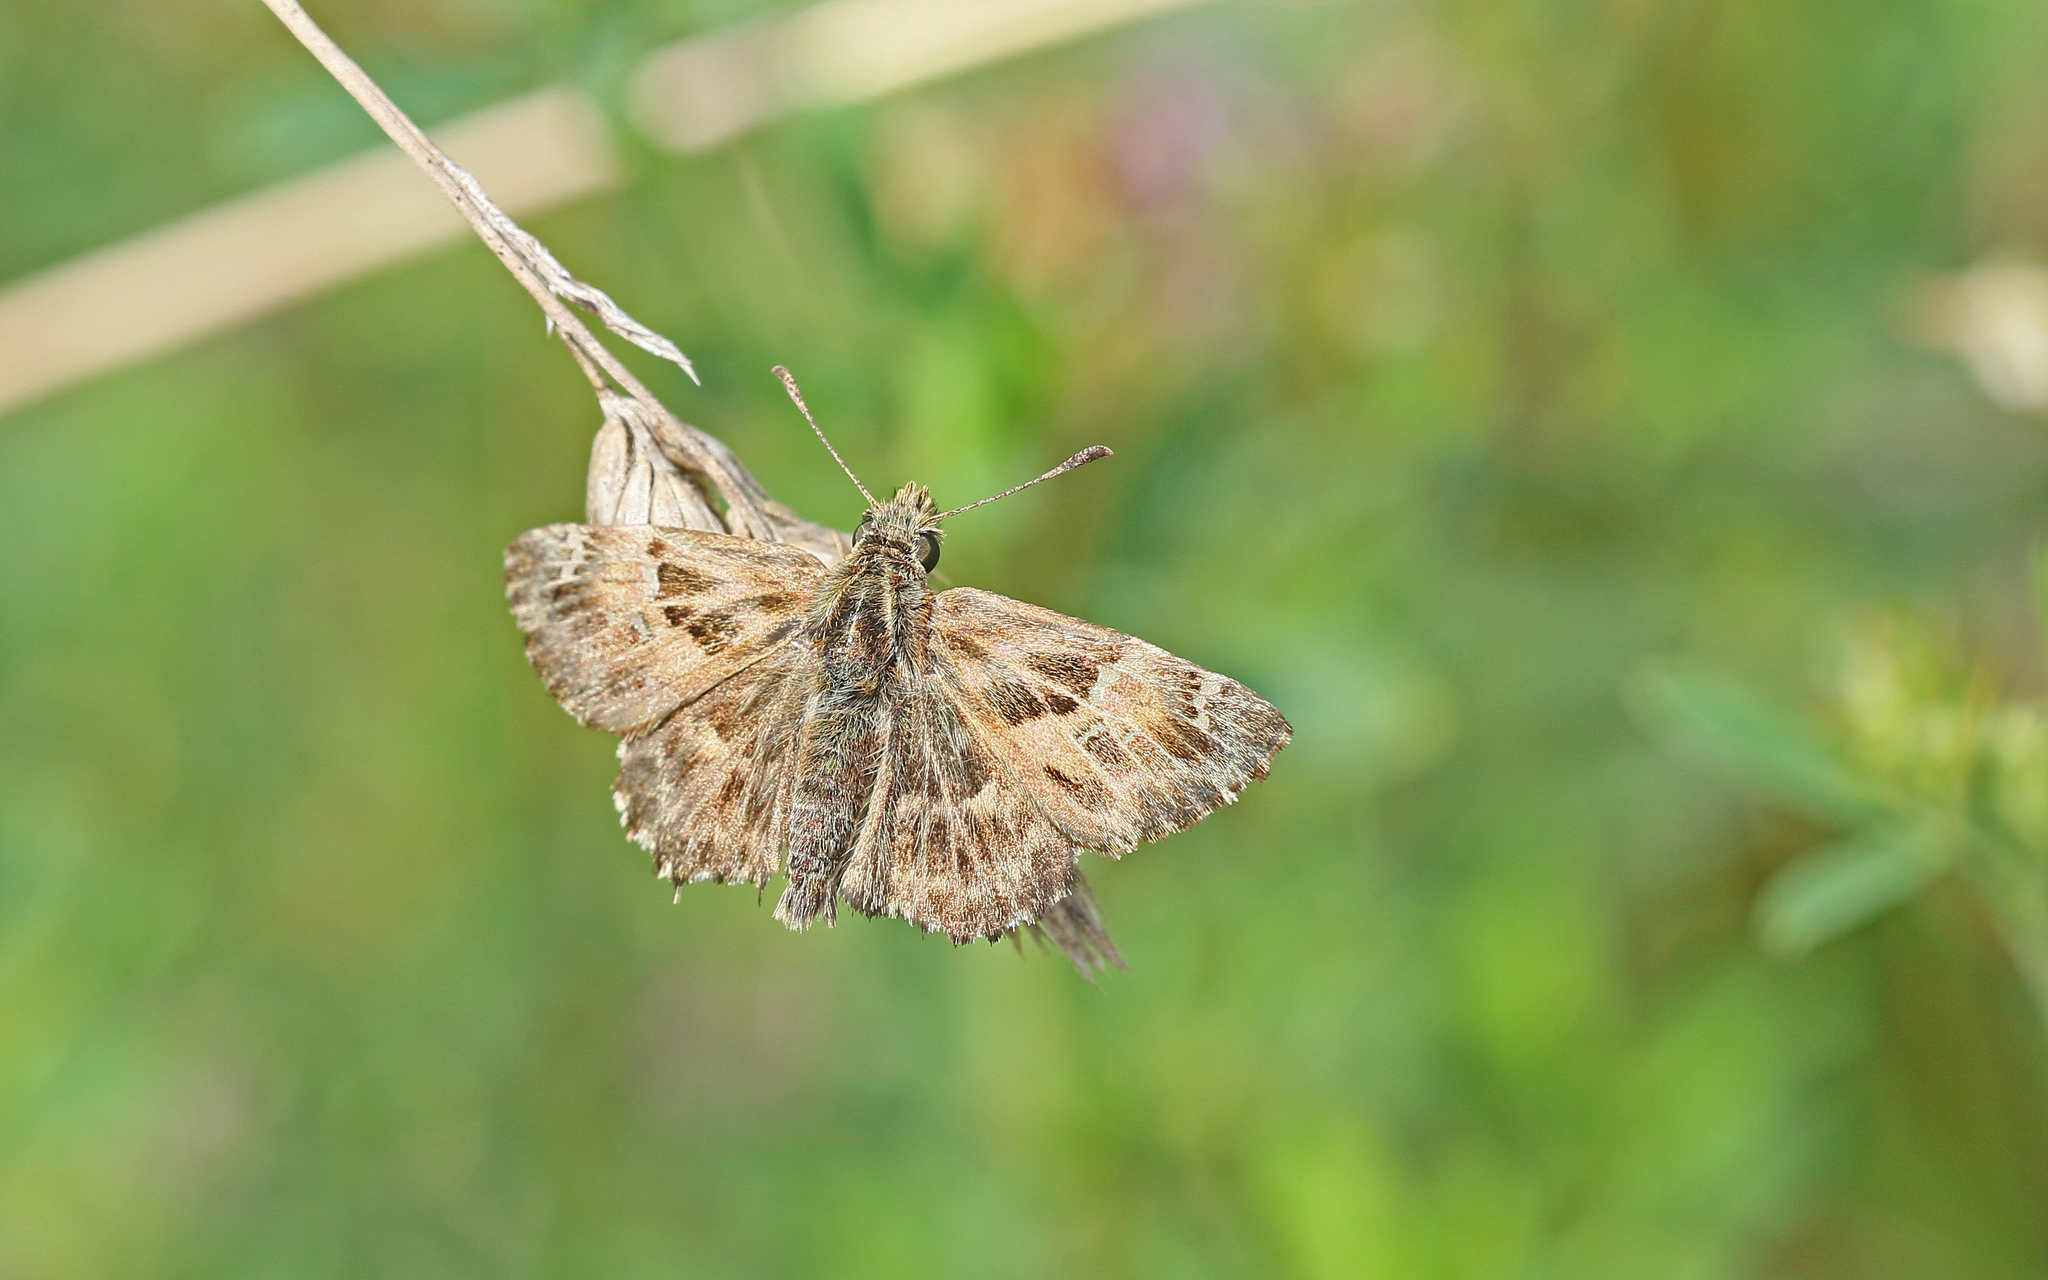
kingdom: Animalia
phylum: Arthropoda
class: Insecta
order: Lepidoptera
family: Hesperiidae
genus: Carcharodus
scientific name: Carcharodus alceae
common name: Mallow skipper
